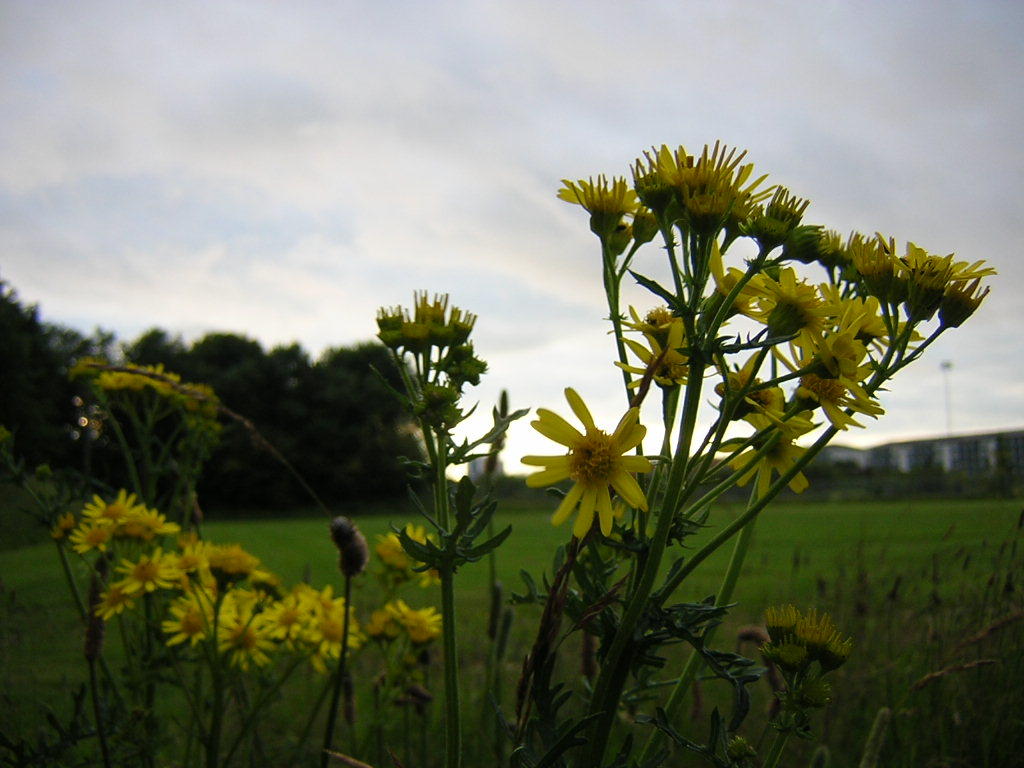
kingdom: Plantae
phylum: Tracheophyta
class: Magnoliopsida
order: Asterales
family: Asteraceae
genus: Jacobaea
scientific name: Jacobaea vulgaris
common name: Stinking willie
